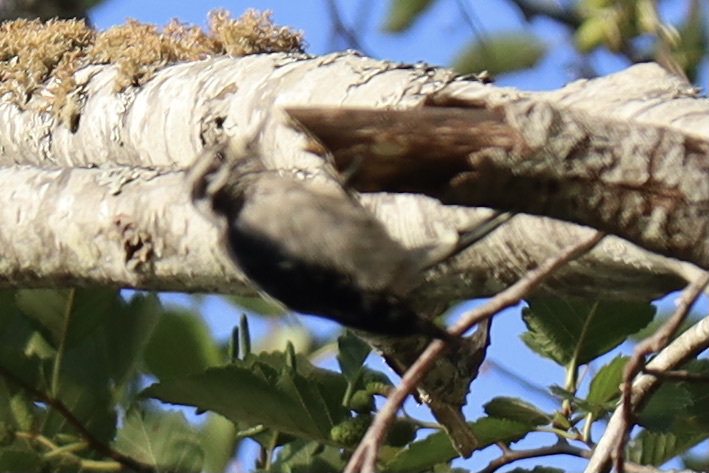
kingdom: Animalia
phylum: Chordata
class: Aves
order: Piciformes
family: Picidae
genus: Dryobates
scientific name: Dryobates pubescens
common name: Downy woodpecker
